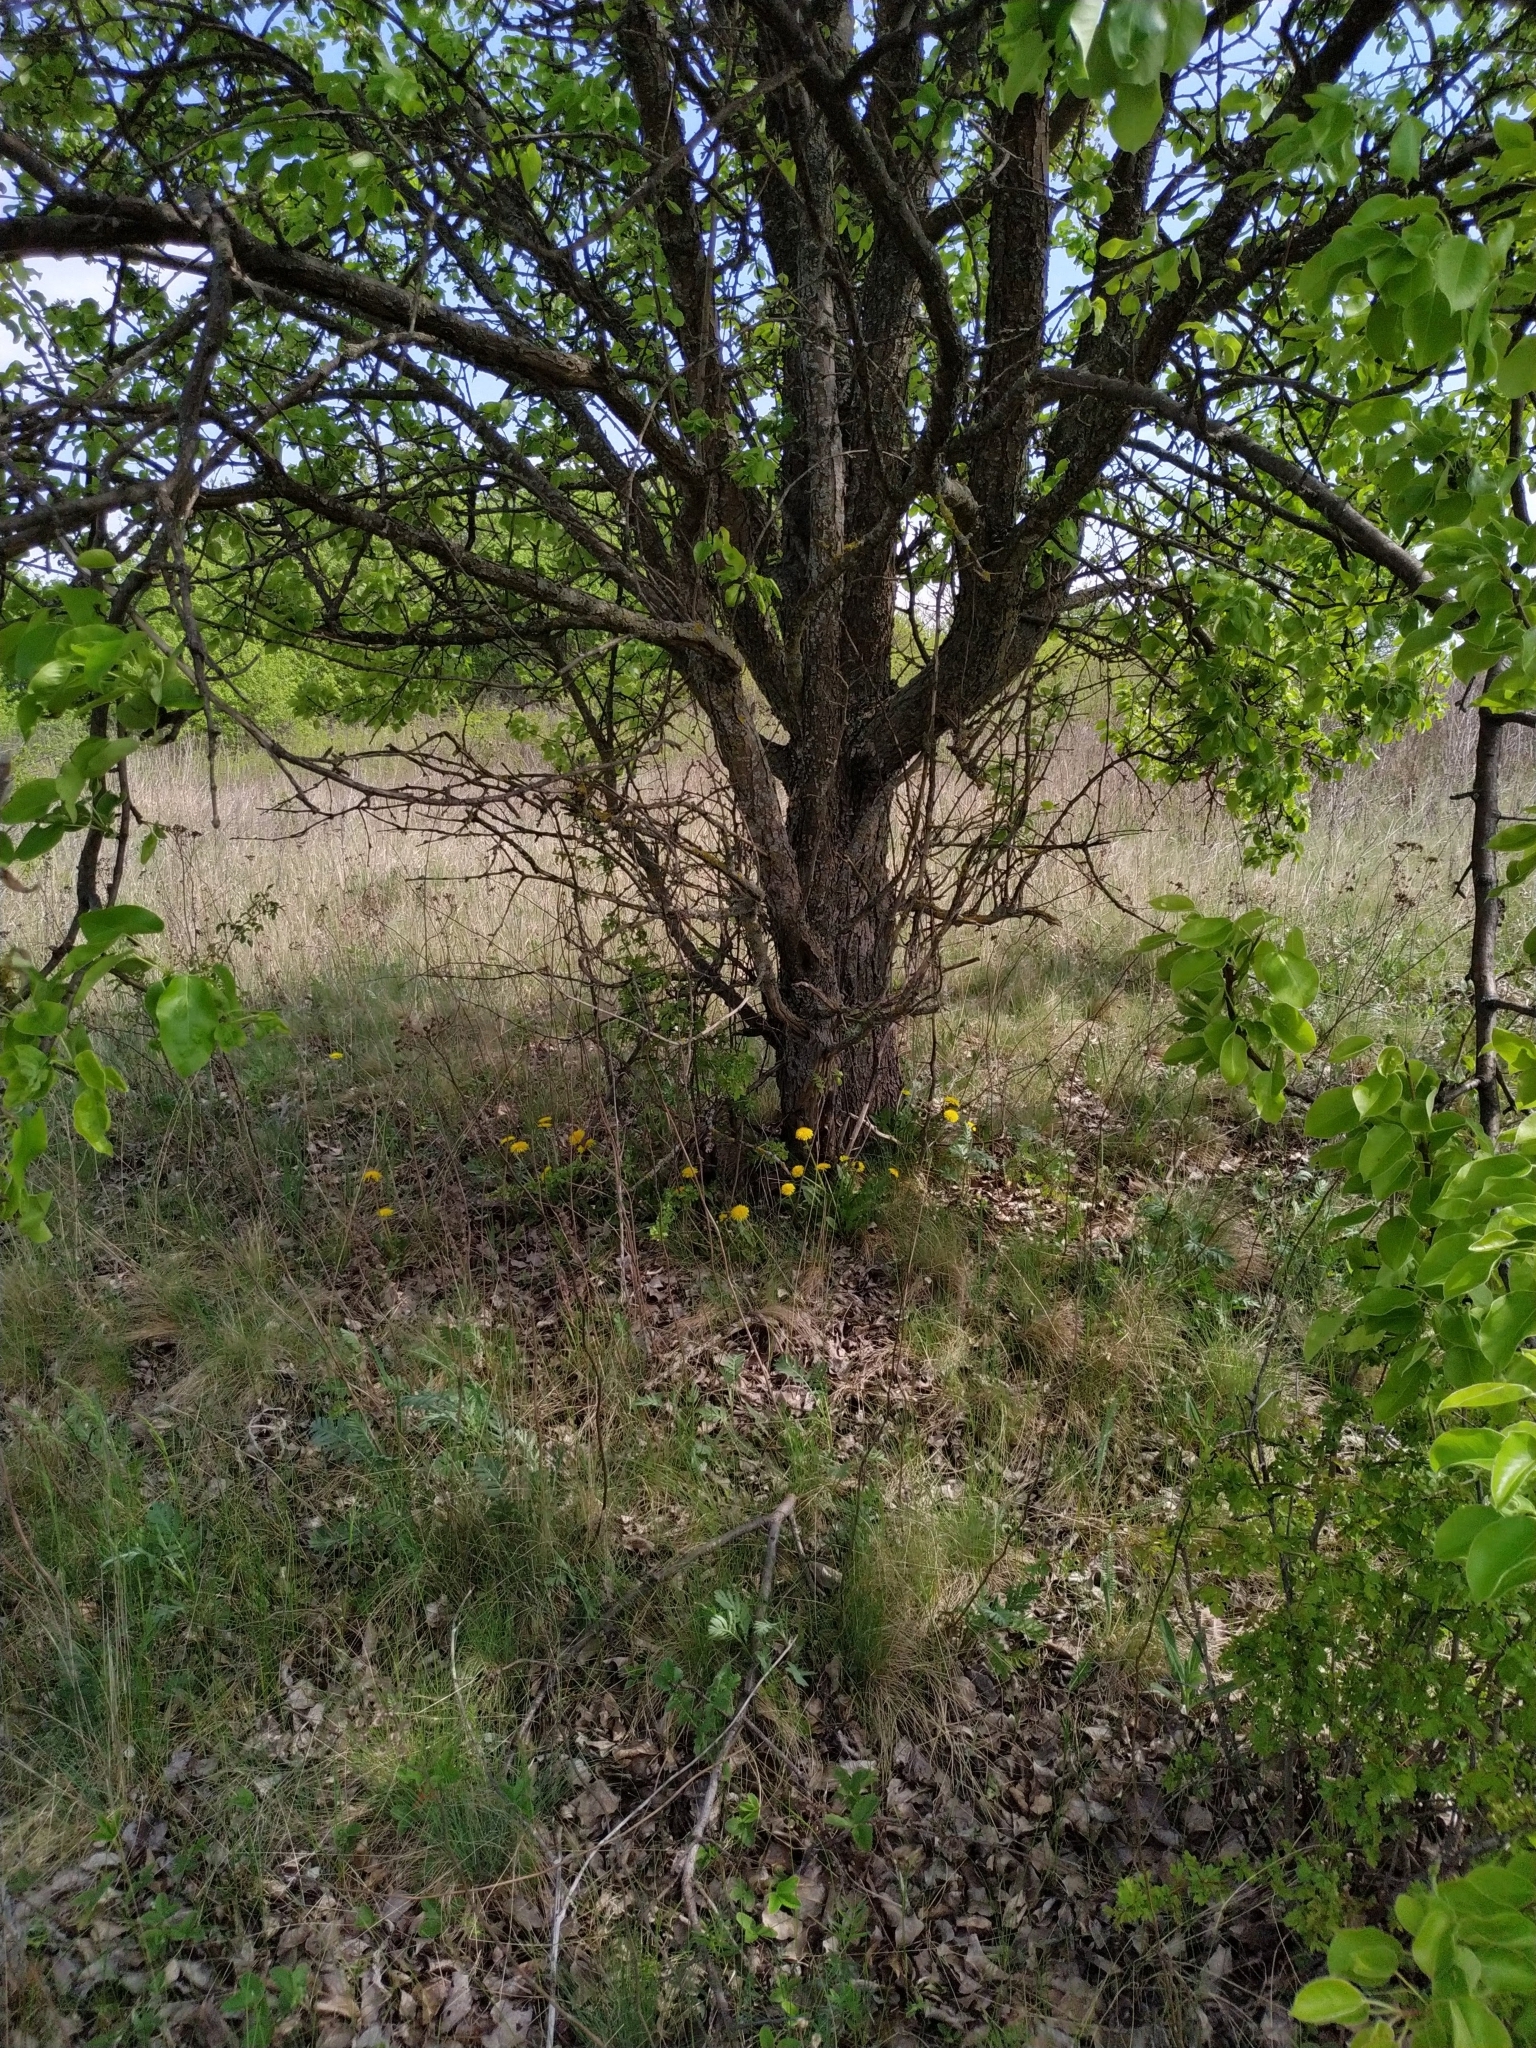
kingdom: Plantae
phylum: Tracheophyta
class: Magnoliopsida
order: Rosales
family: Rosaceae
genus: Pyrus
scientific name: Pyrus communis
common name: Pear
